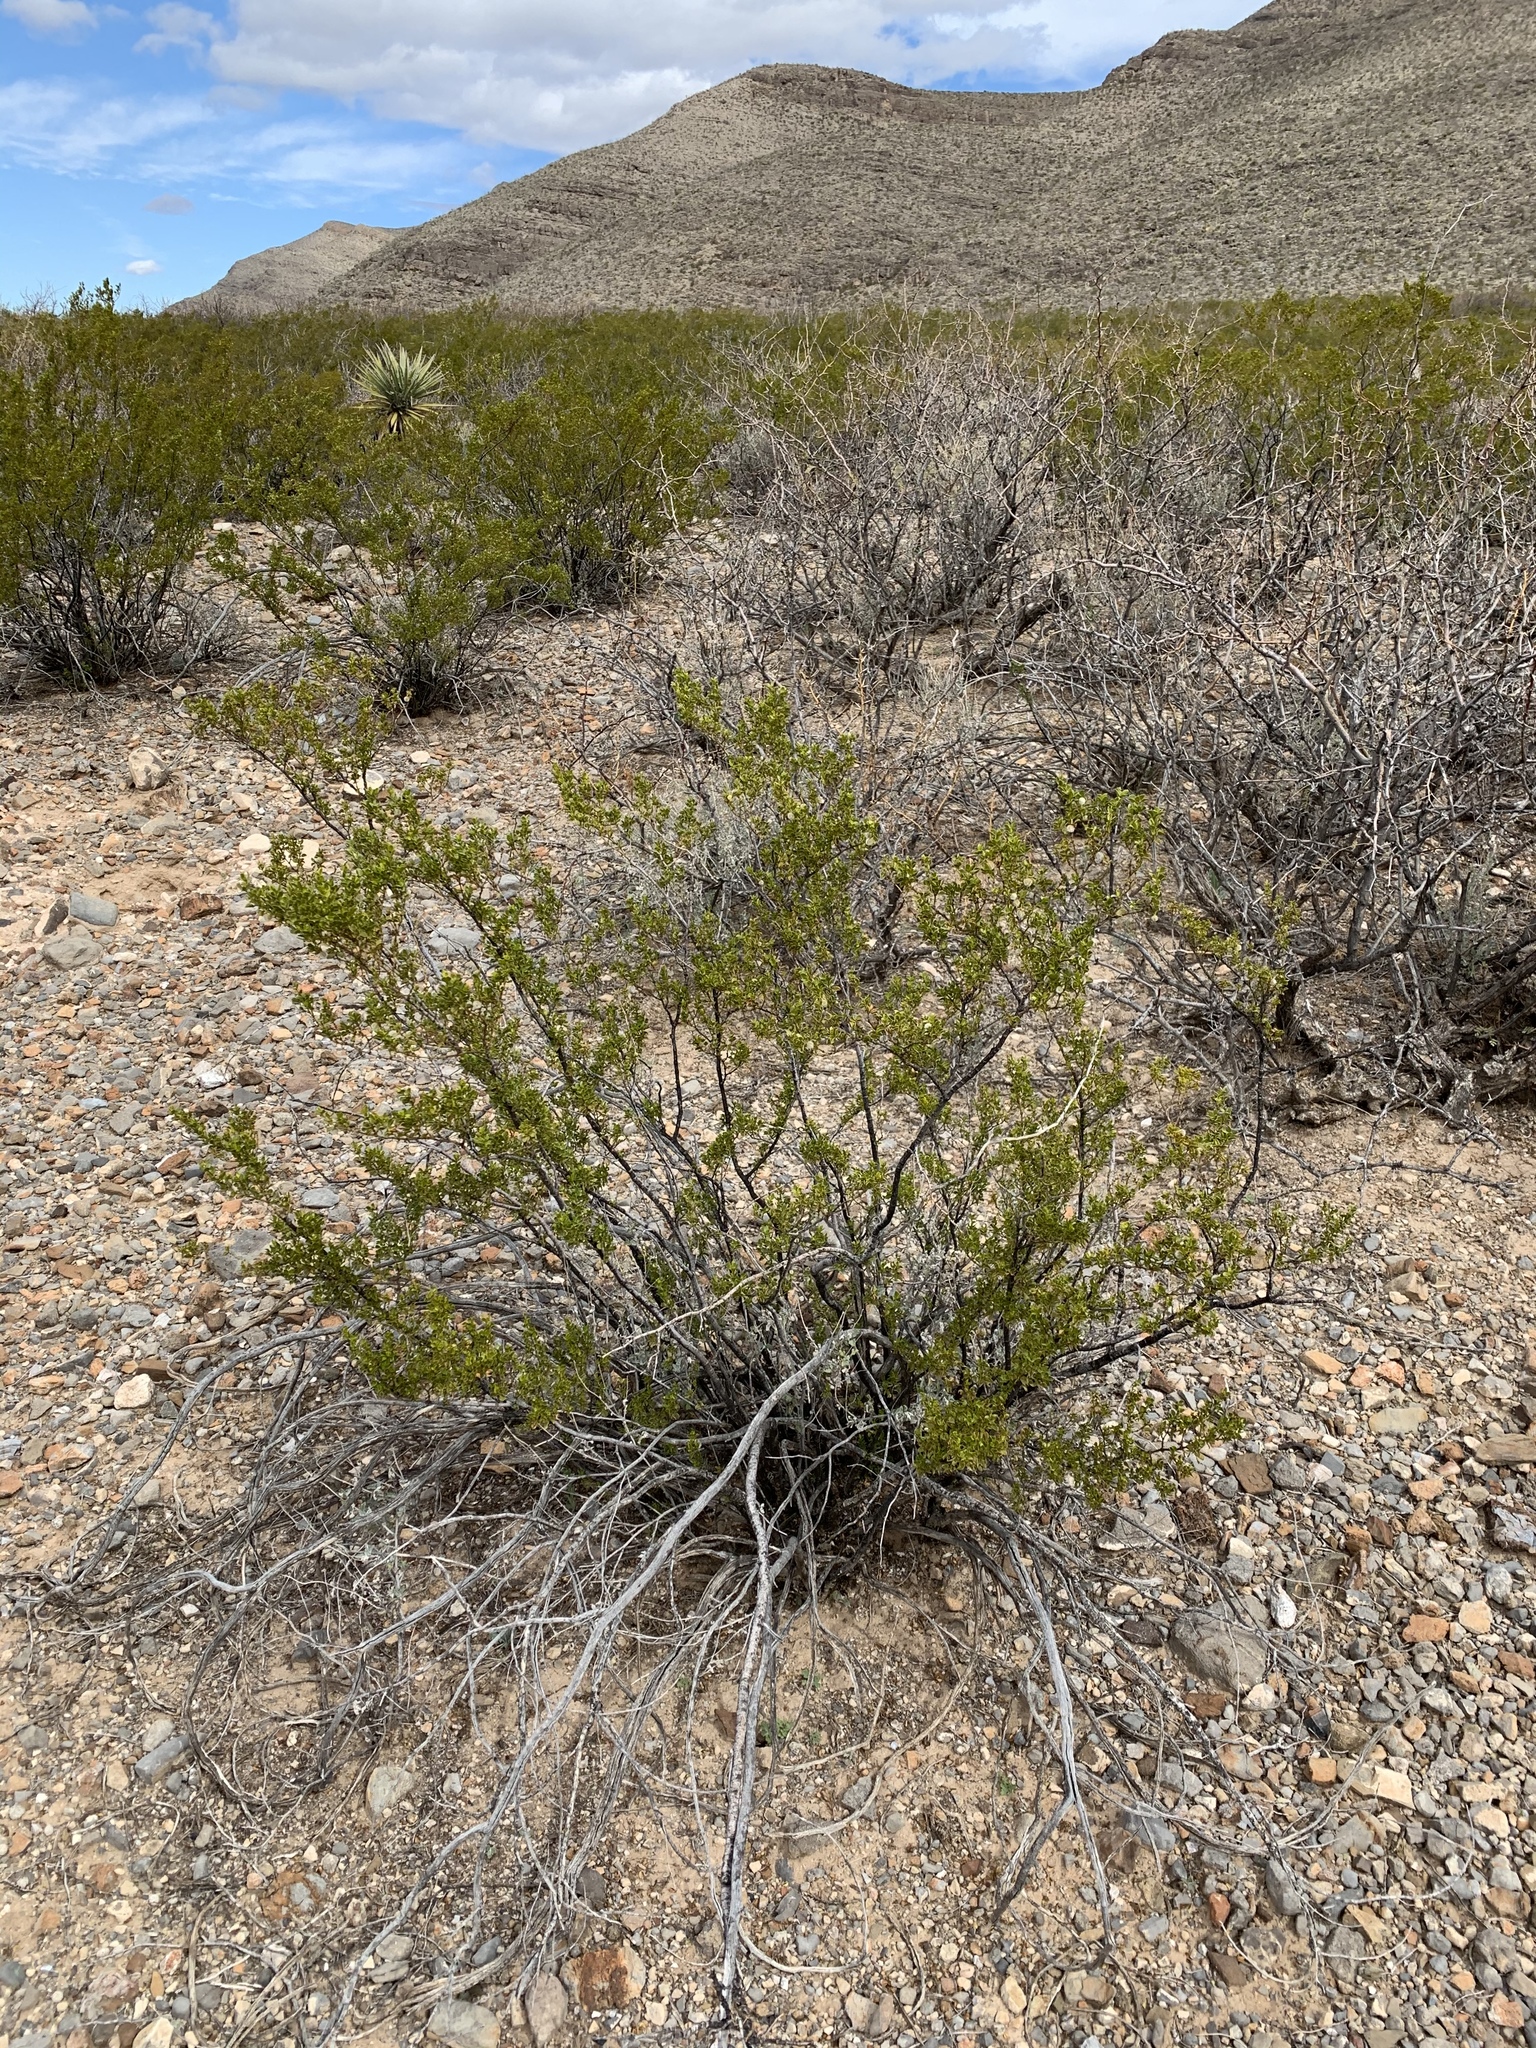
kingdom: Plantae
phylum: Tracheophyta
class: Magnoliopsida
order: Zygophyllales
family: Zygophyllaceae
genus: Larrea
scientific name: Larrea tridentata
